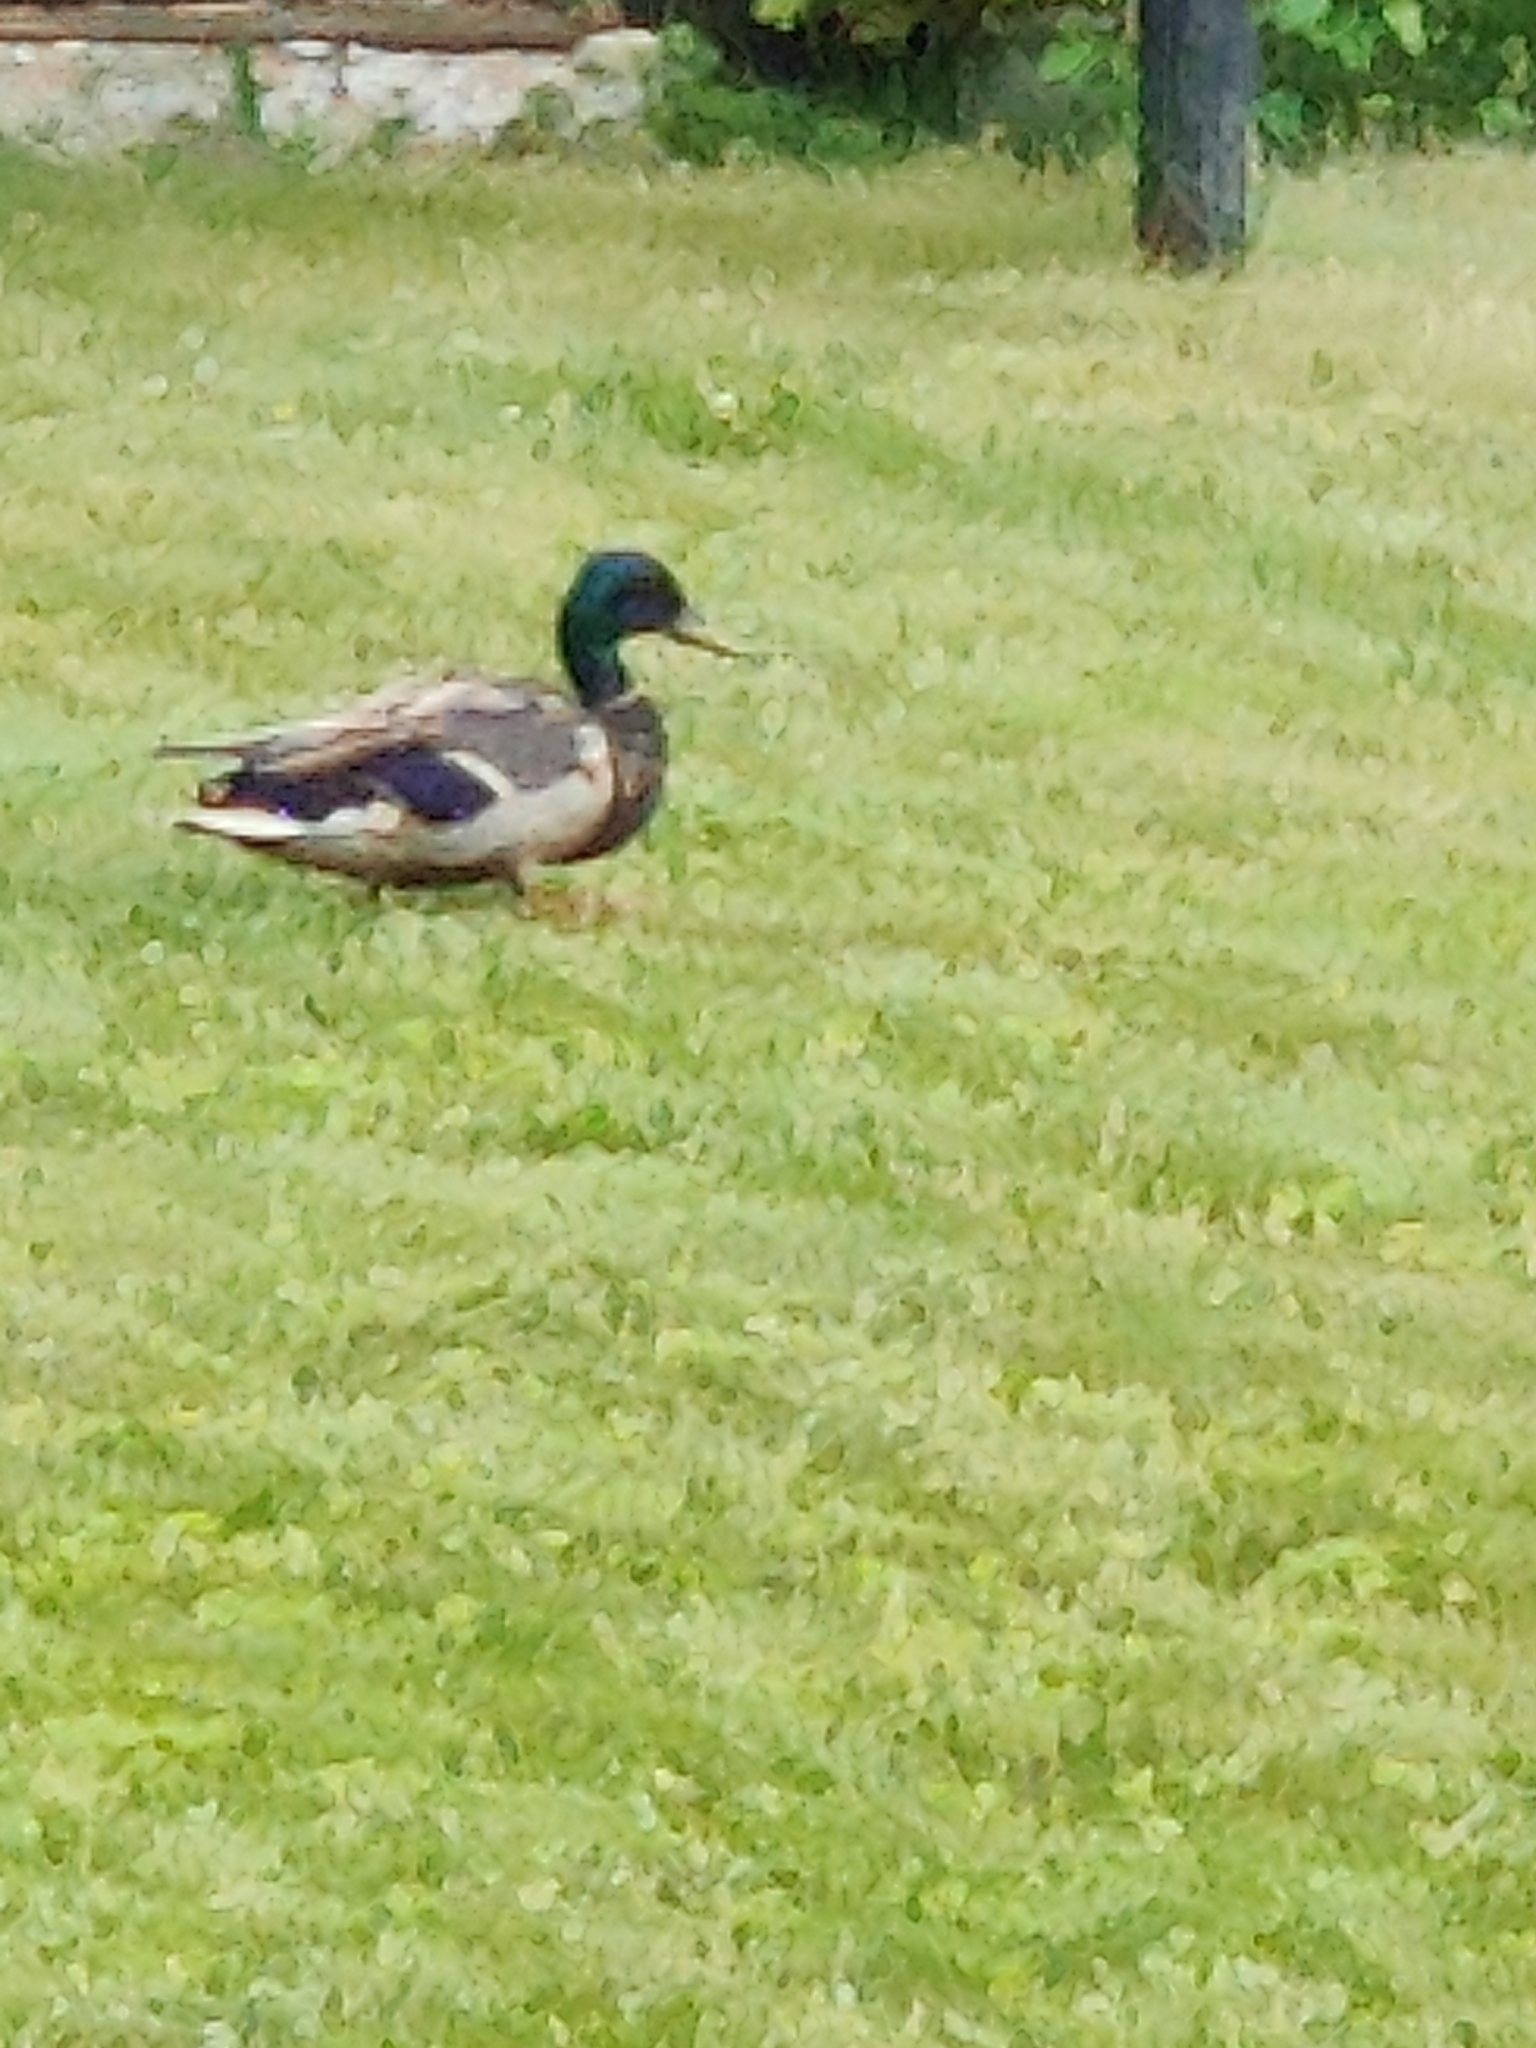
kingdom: Animalia
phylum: Chordata
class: Aves
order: Anseriformes
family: Anatidae
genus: Anas
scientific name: Anas platyrhynchos
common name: Mallard
